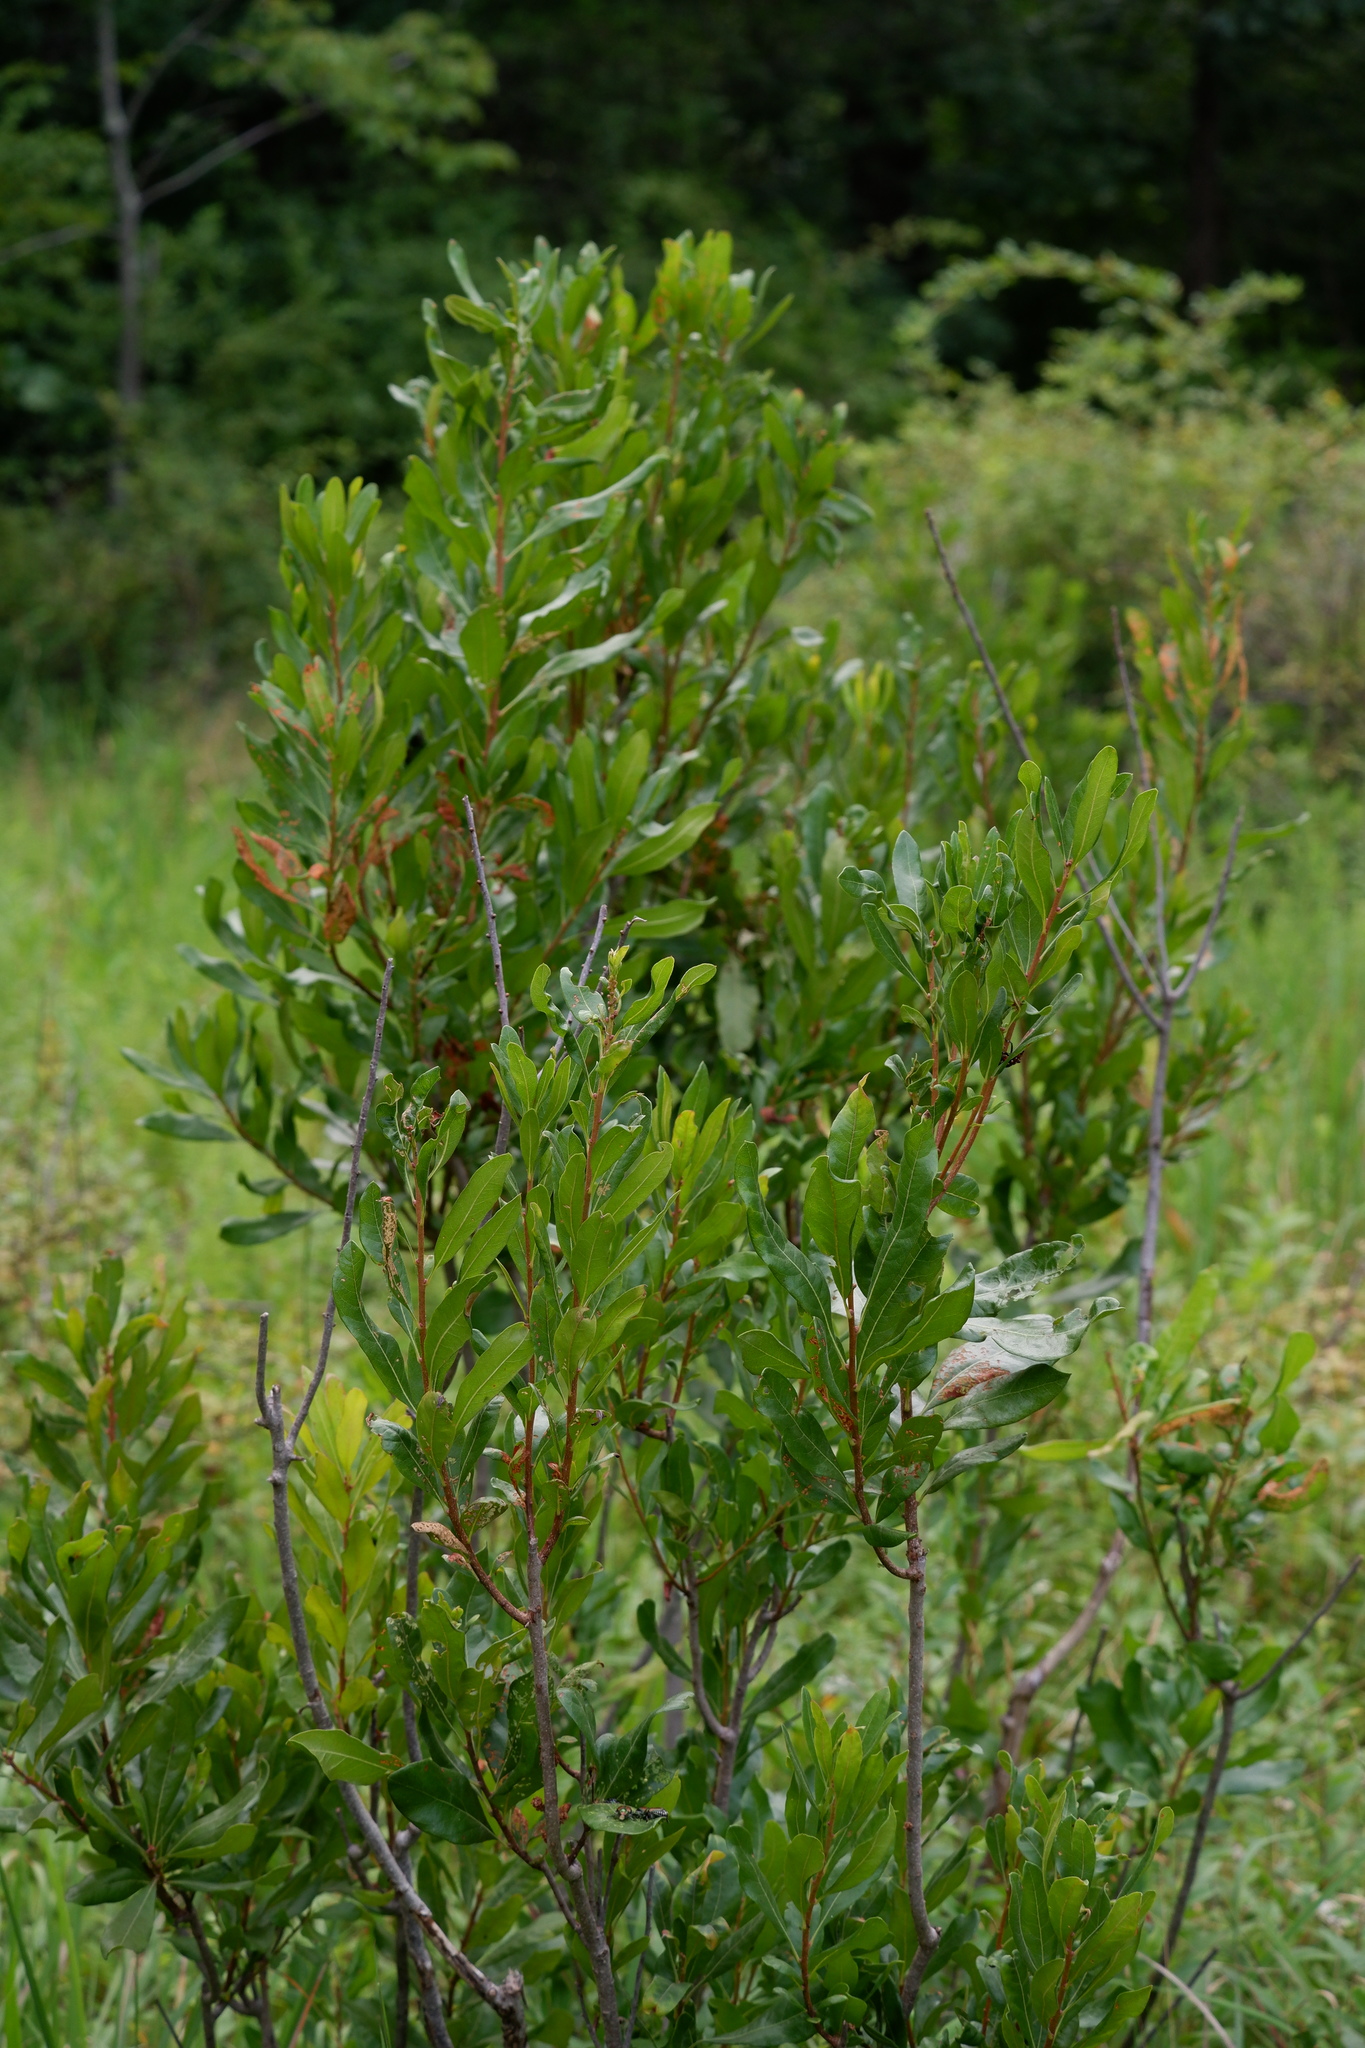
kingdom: Plantae
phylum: Tracheophyta
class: Magnoliopsida
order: Fagales
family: Myricaceae
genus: Morella
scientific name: Morella pensylvanica
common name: Northern bayberry
